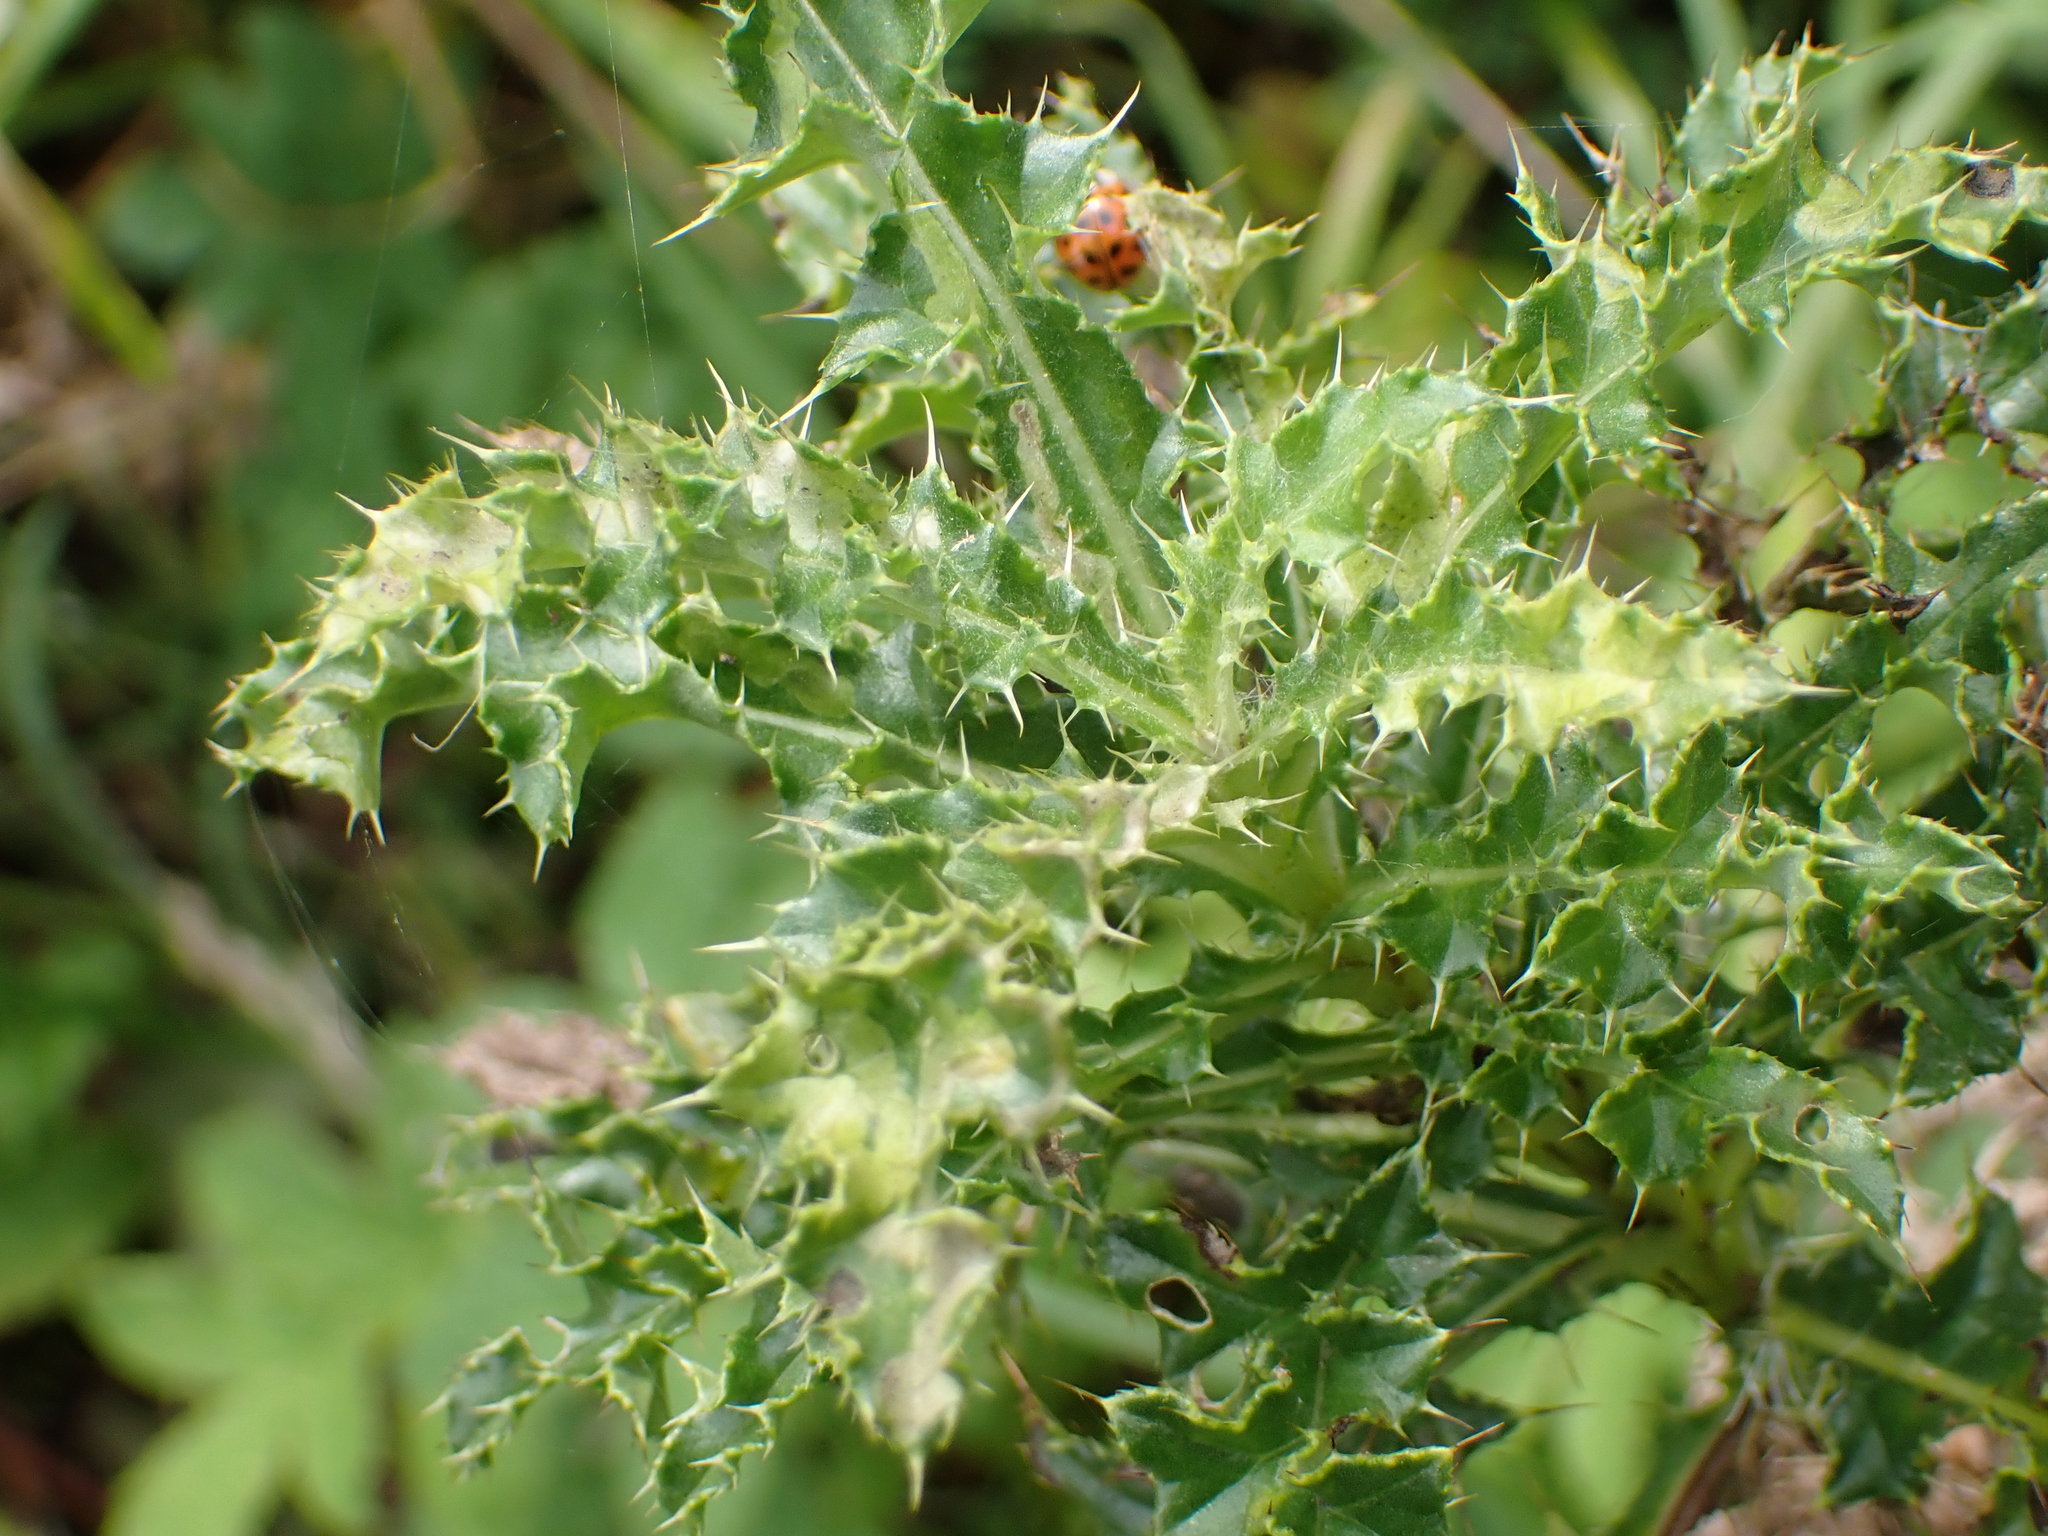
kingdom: Plantae
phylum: Tracheophyta
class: Magnoliopsida
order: Asterales
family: Asteraceae
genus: Cirsium
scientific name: Cirsium arvense
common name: Creeping thistle
